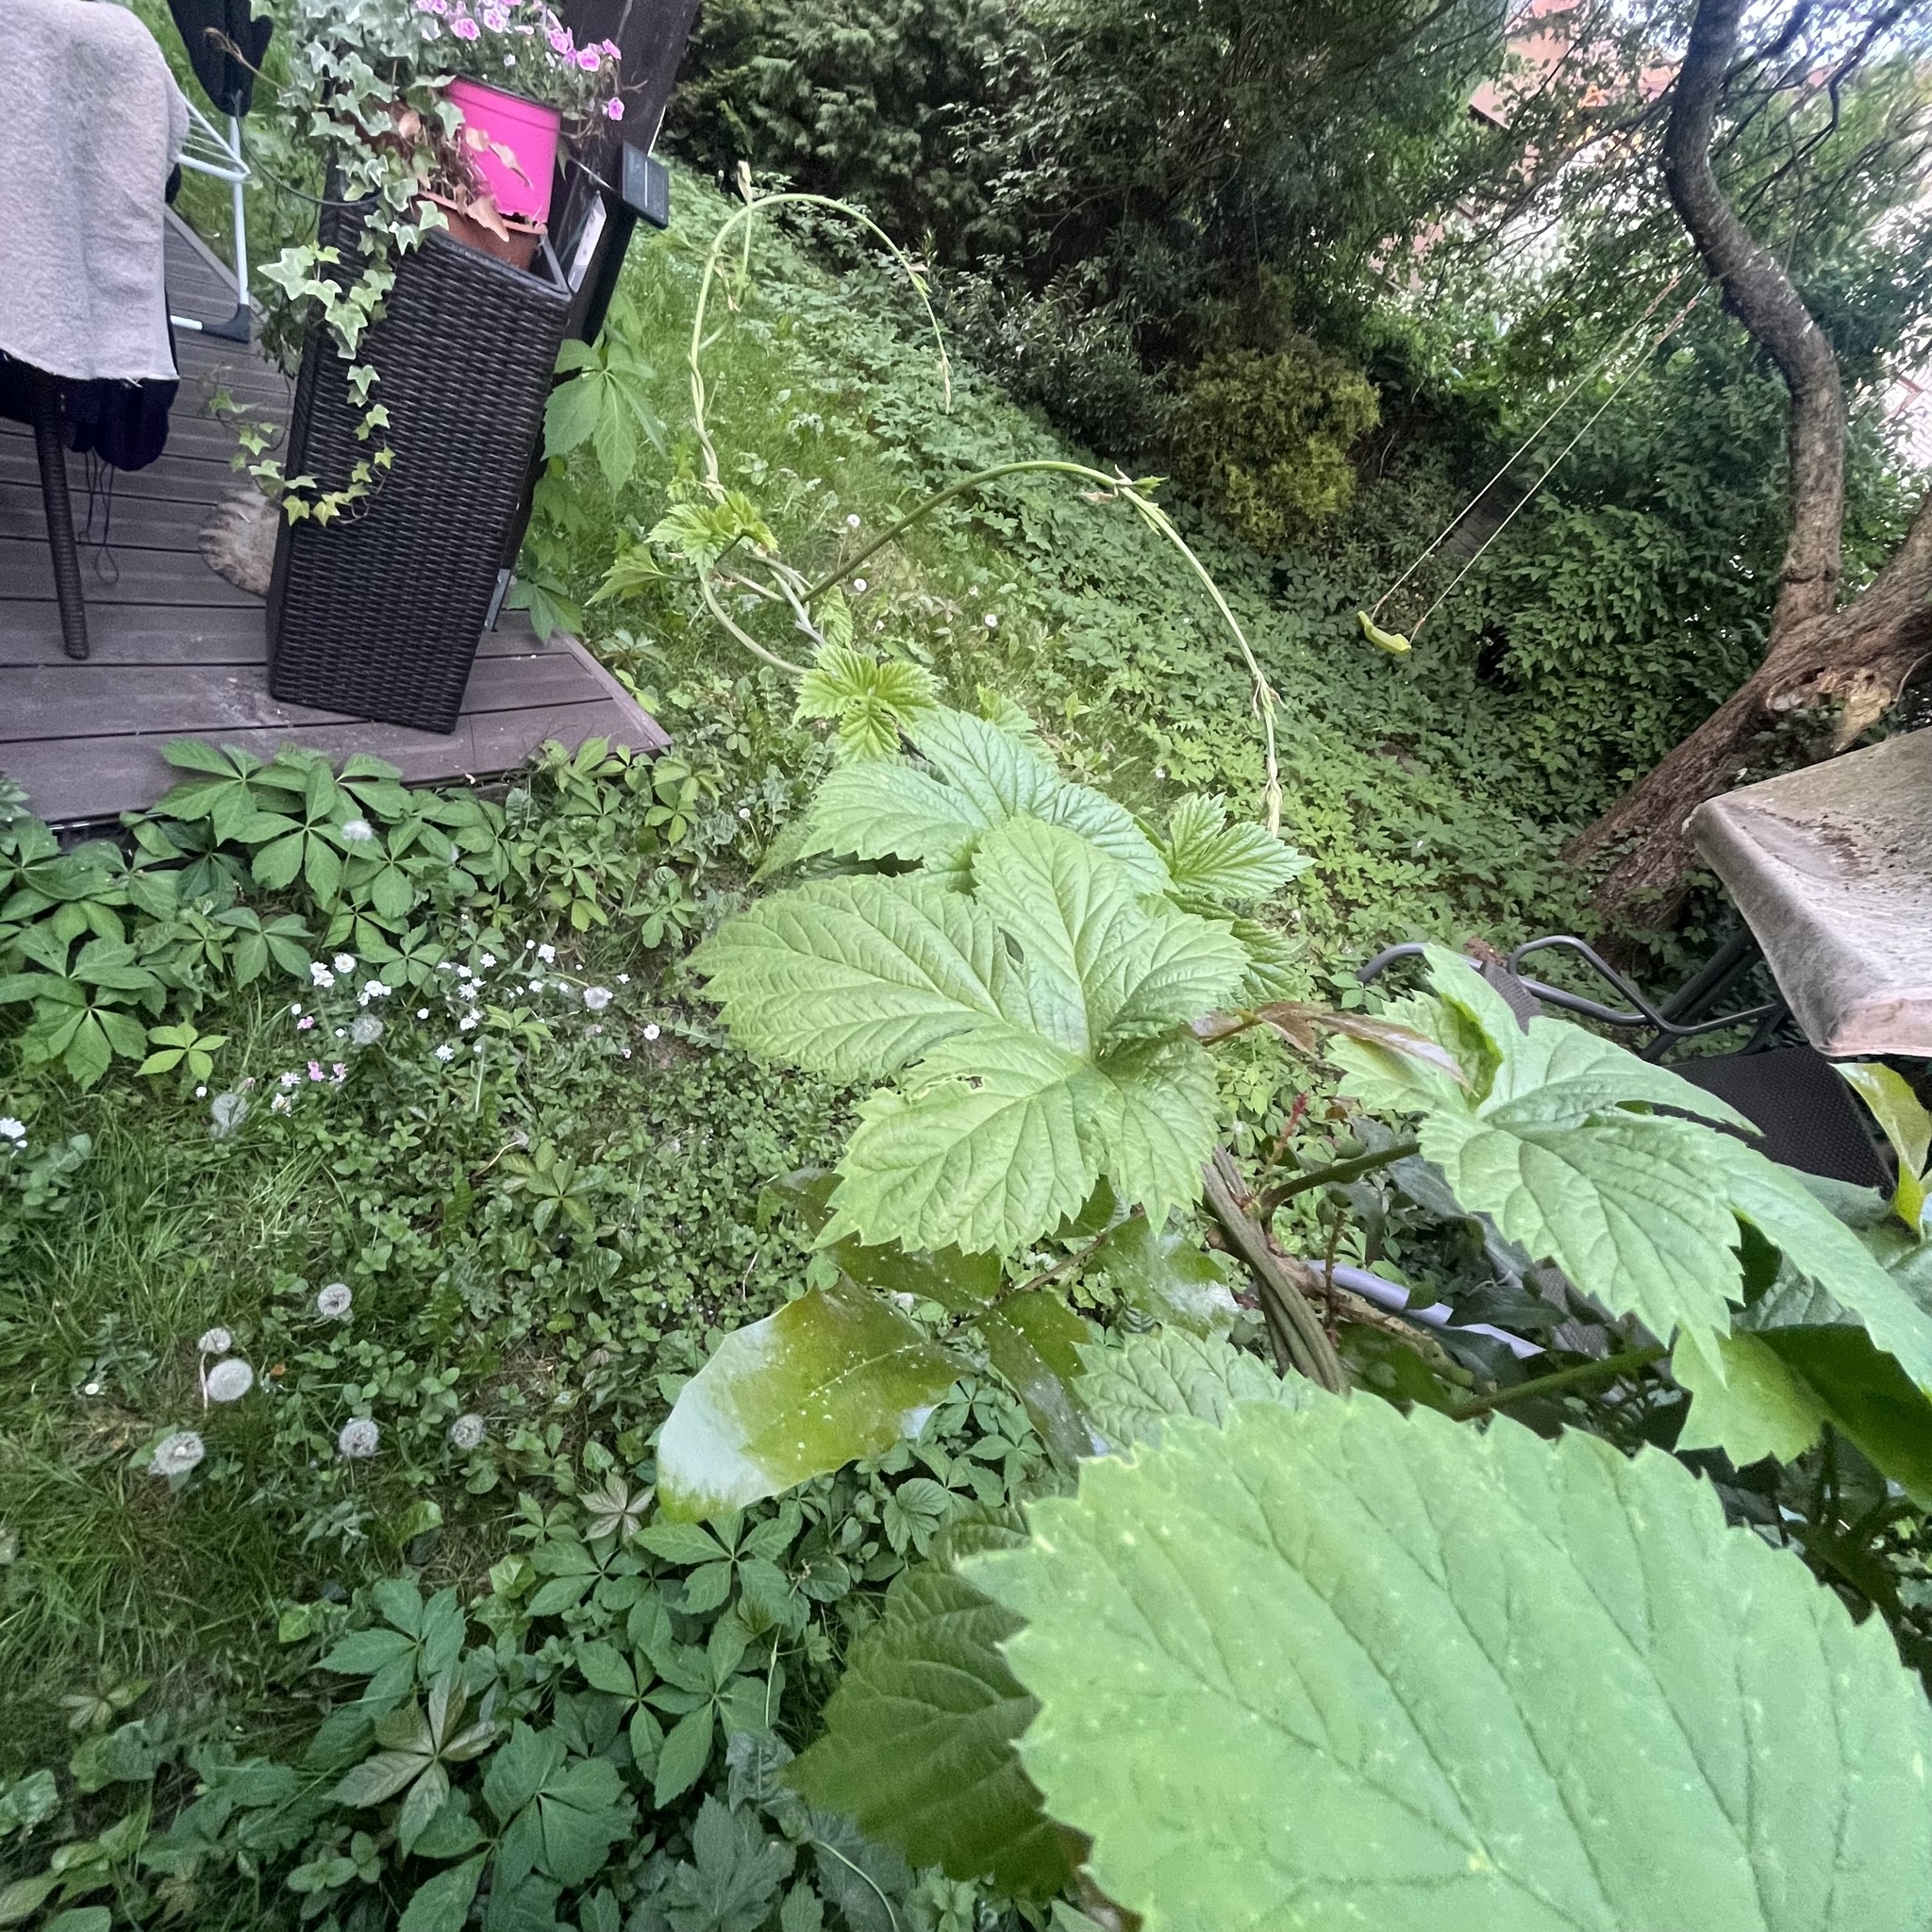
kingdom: Plantae
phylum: Tracheophyta
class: Magnoliopsida
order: Rosales
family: Cannabaceae
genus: Humulus
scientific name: Humulus lupulus
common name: Hop
